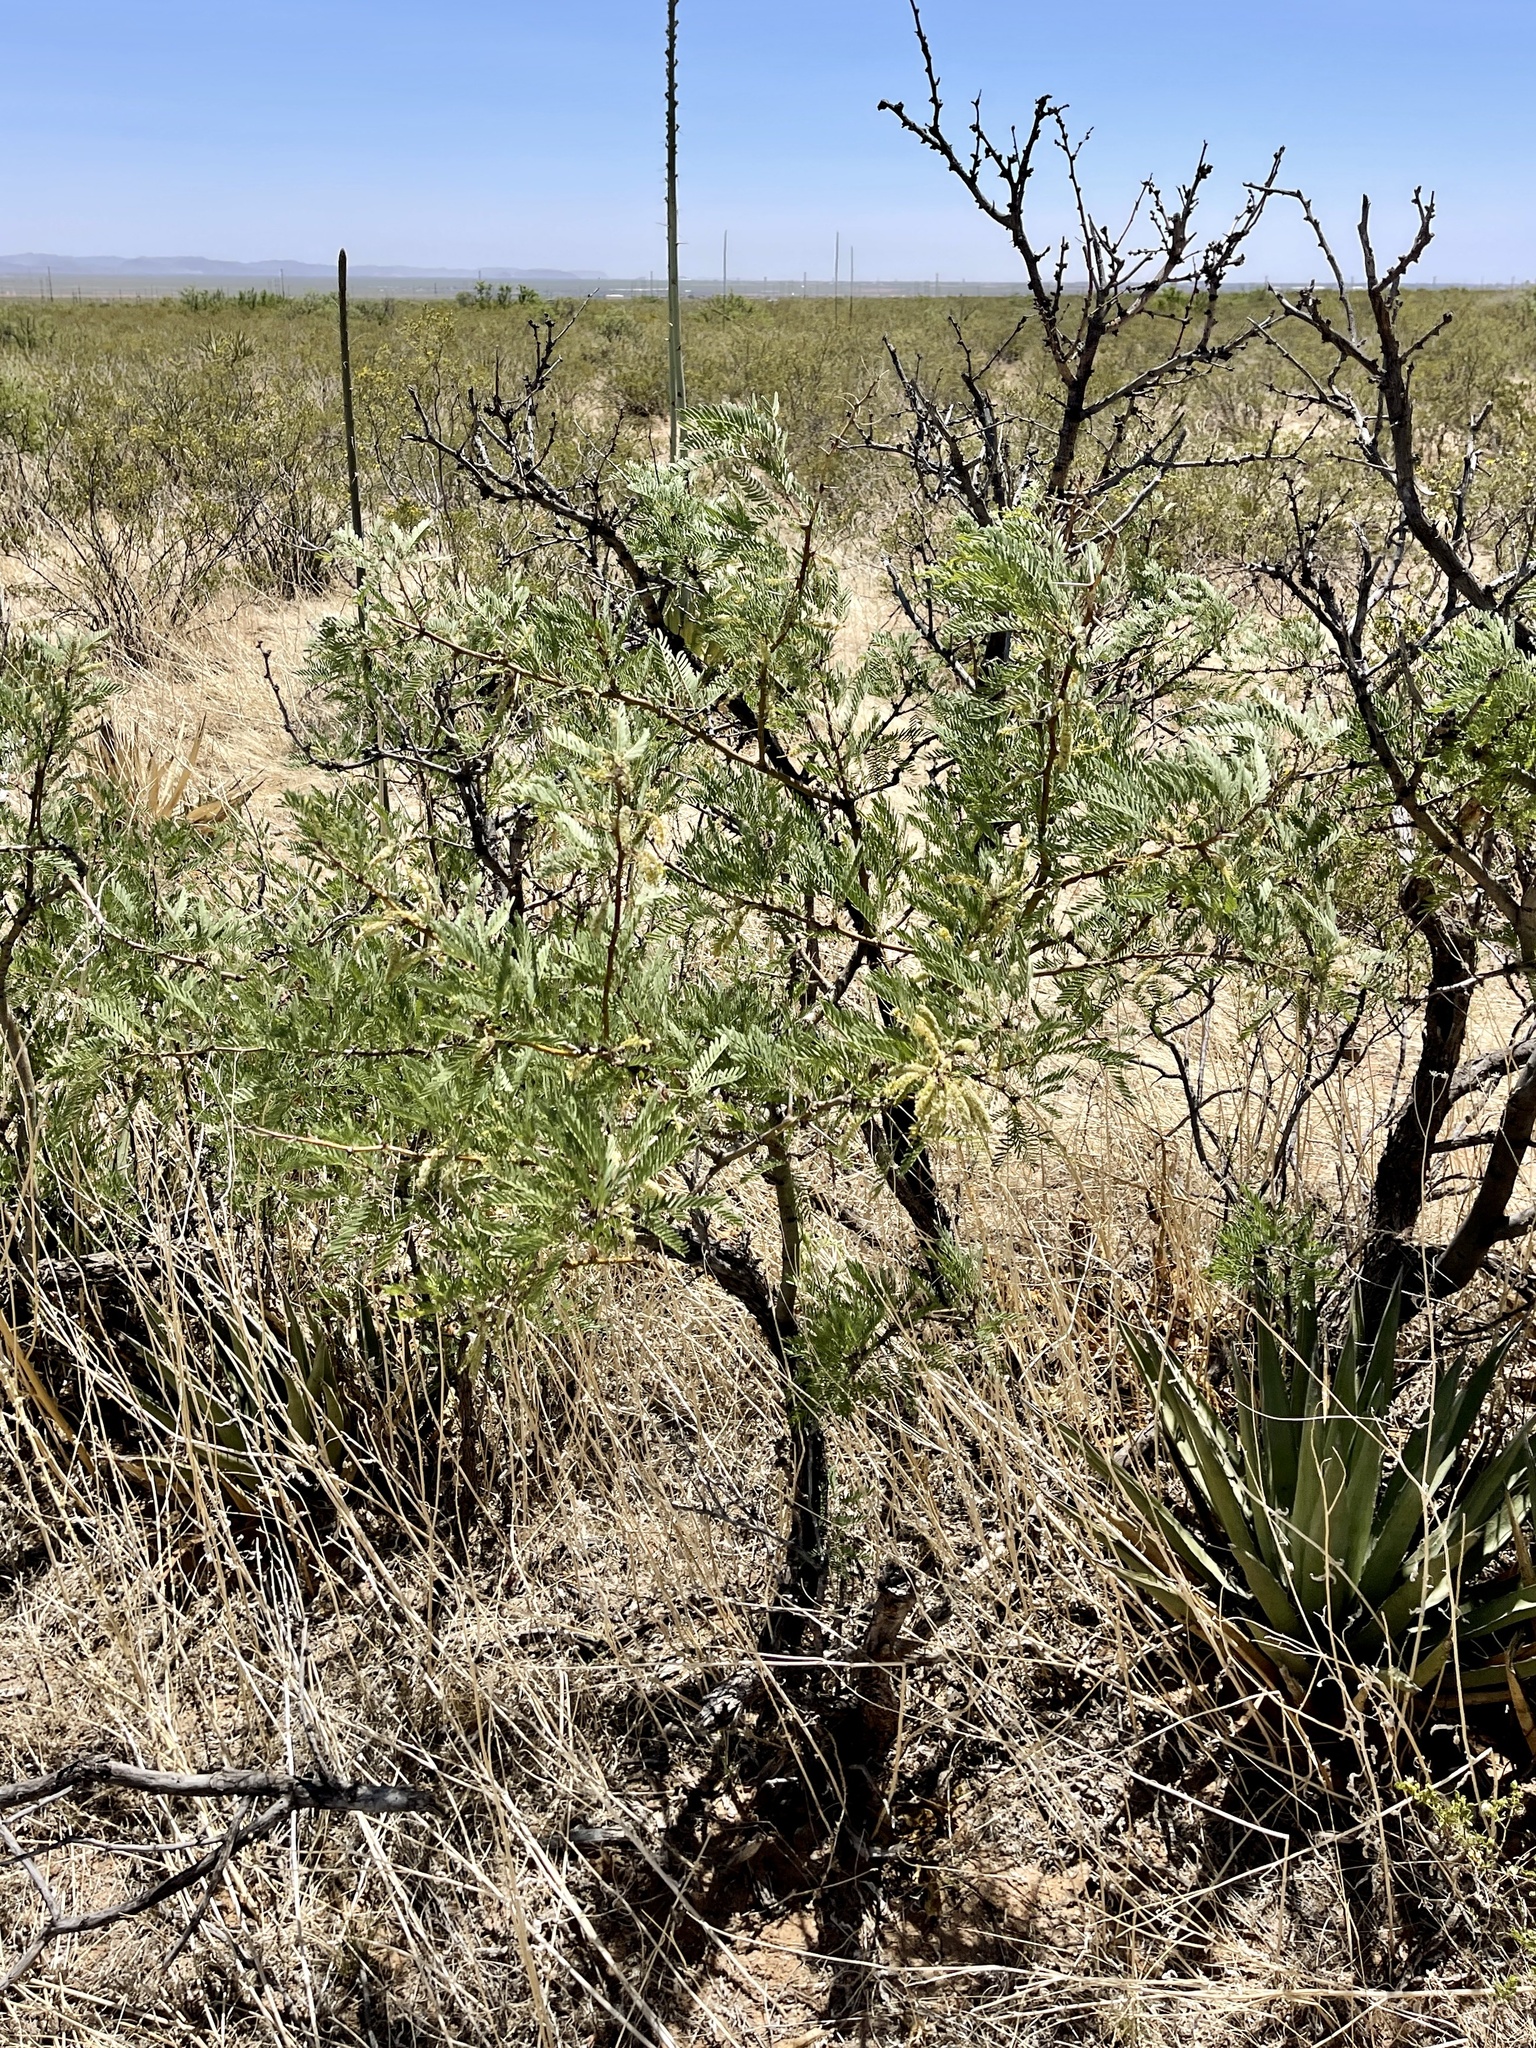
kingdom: Plantae
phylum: Tracheophyta
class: Magnoliopsida
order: Fabales
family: Fabaceae
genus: Prosopis
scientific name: Prosopis pubescens
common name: Screw-bean
